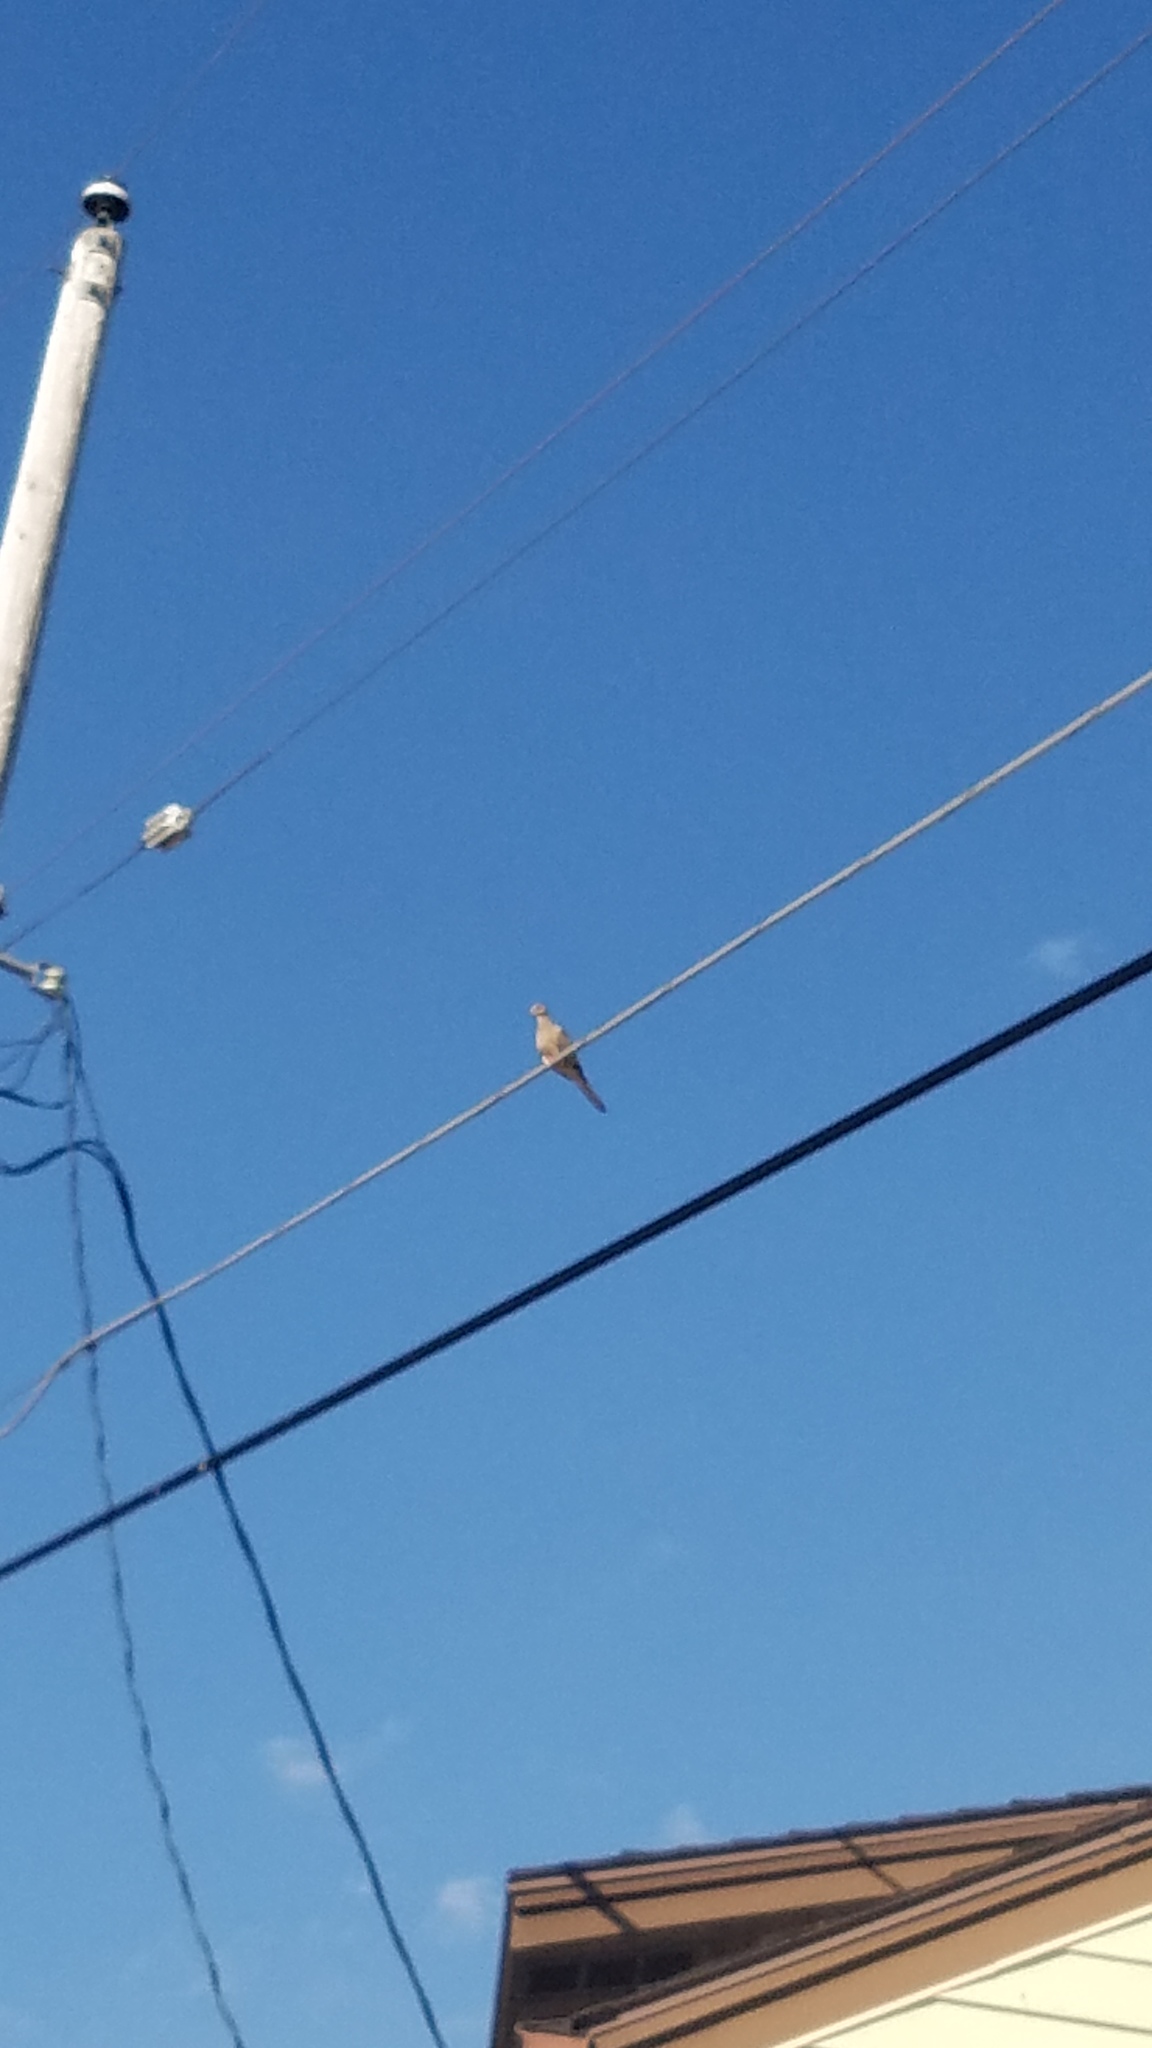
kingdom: Animalia
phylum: Chordata
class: Aves
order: Columbiformes
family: Columbidae
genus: Zenaida
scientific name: Zenaida macroura
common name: Mourning dove
